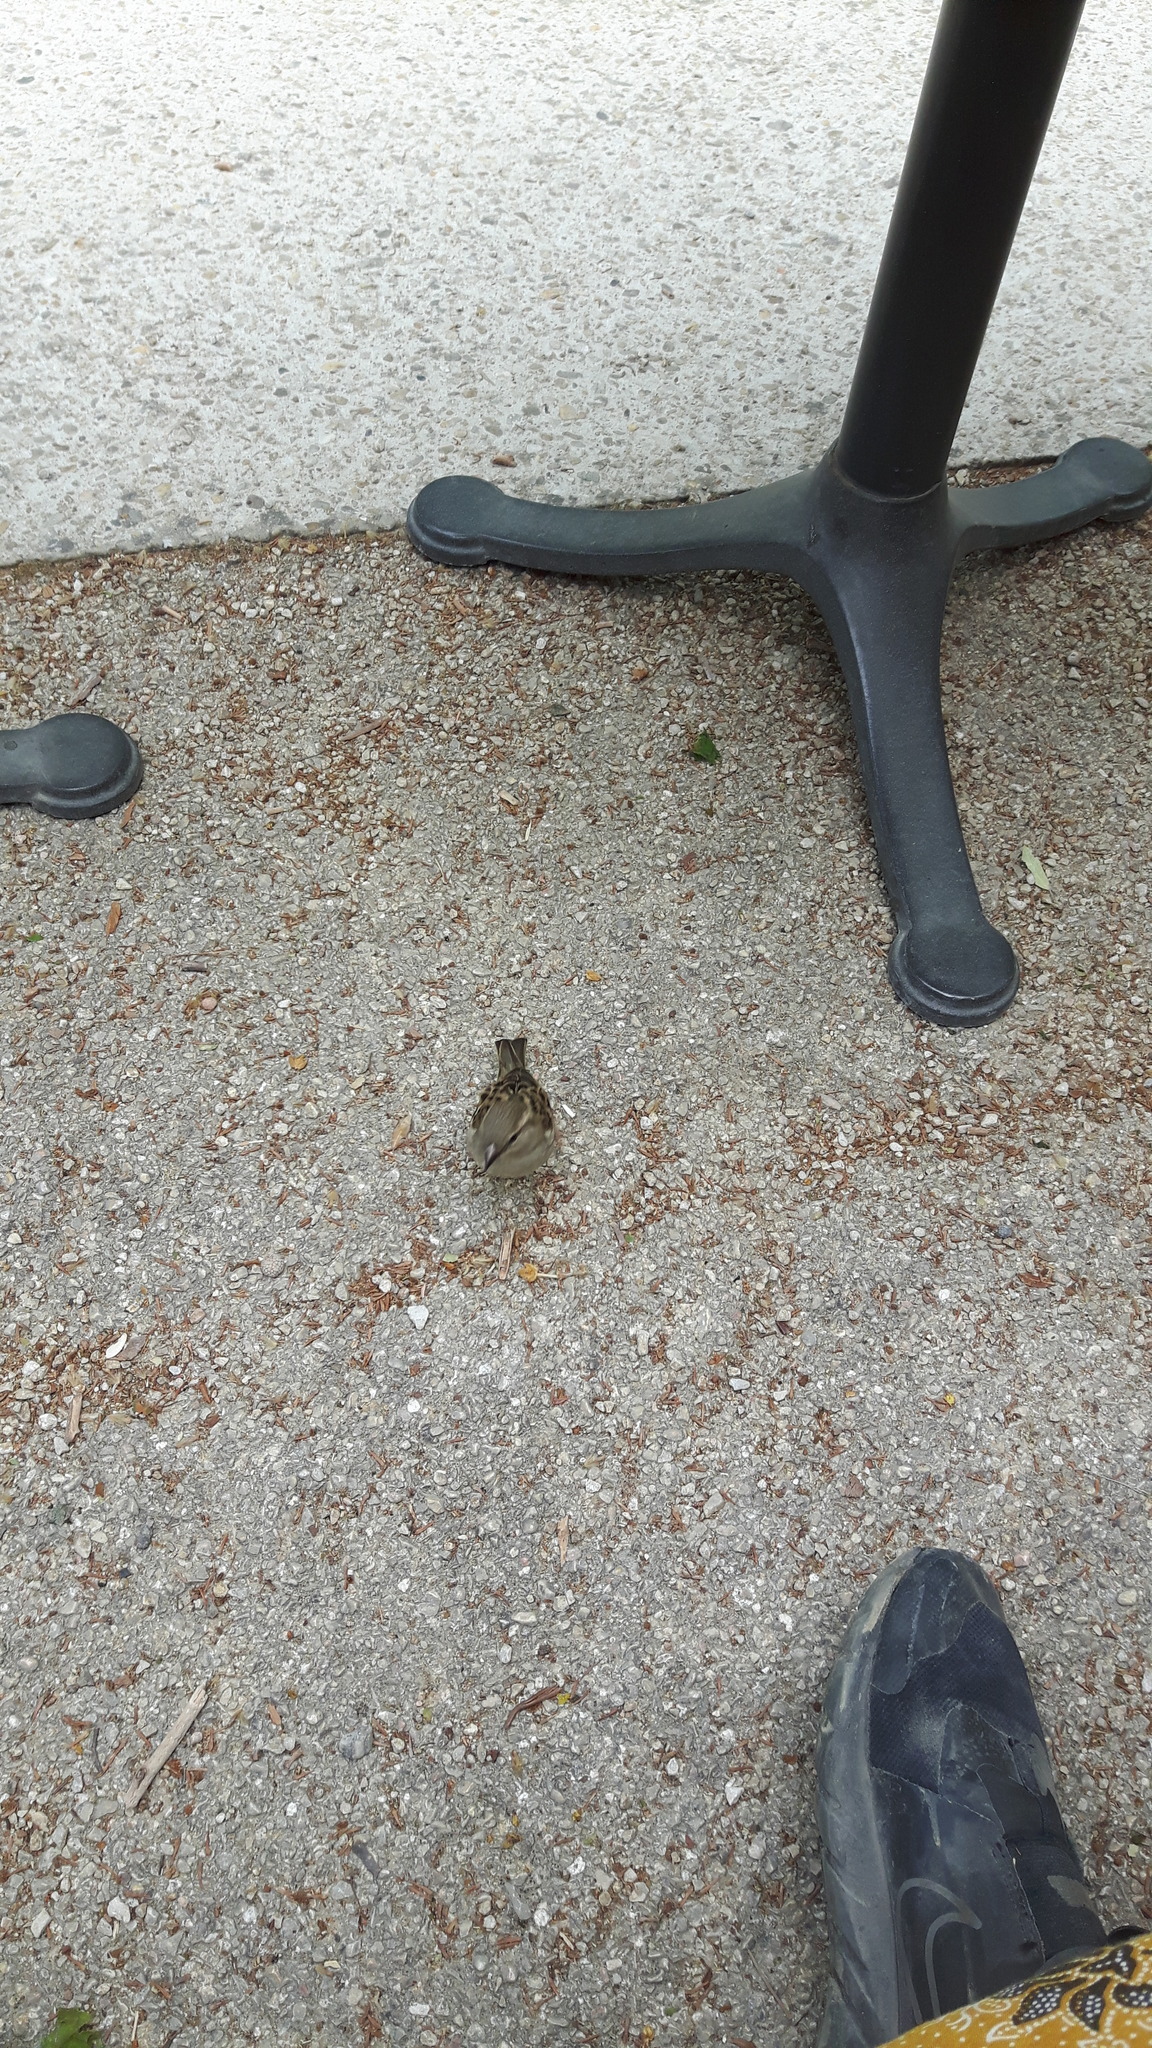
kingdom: Animalia
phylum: Chordata
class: Aves
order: Passeriformes
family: Passeridae
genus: Passer
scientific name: Passer domesticus
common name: House sparrow
